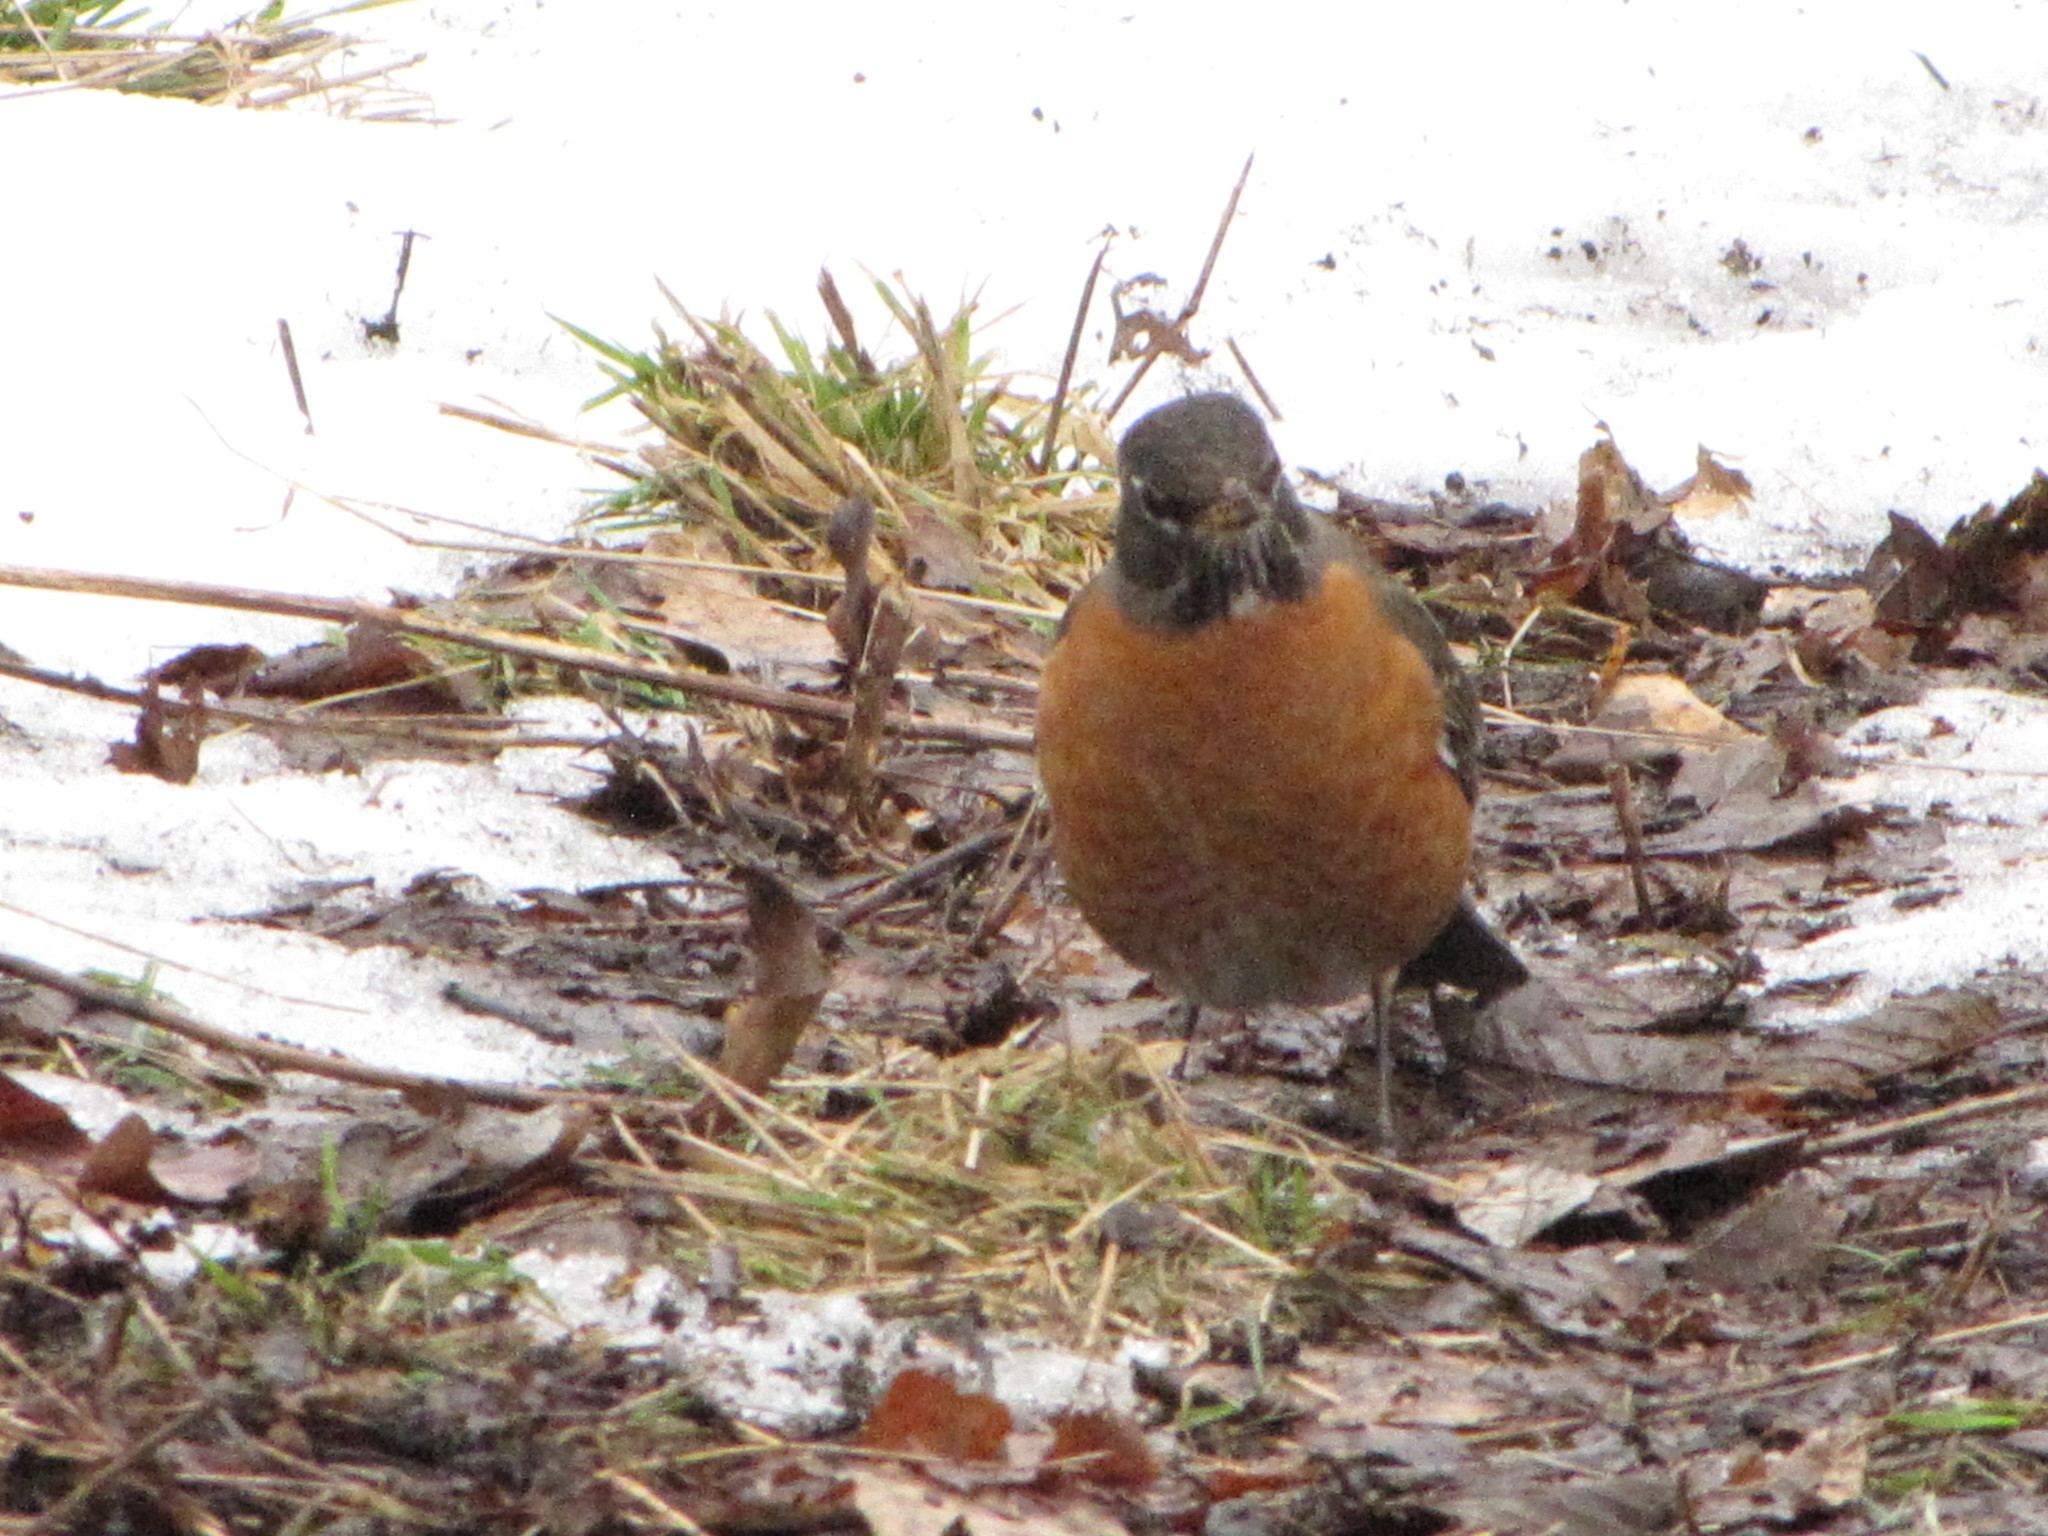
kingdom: Animalia
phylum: Chordata
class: Aves
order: Passeriformes
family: Turdidae
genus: Turdus
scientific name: Turdus migratorius
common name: American robin
